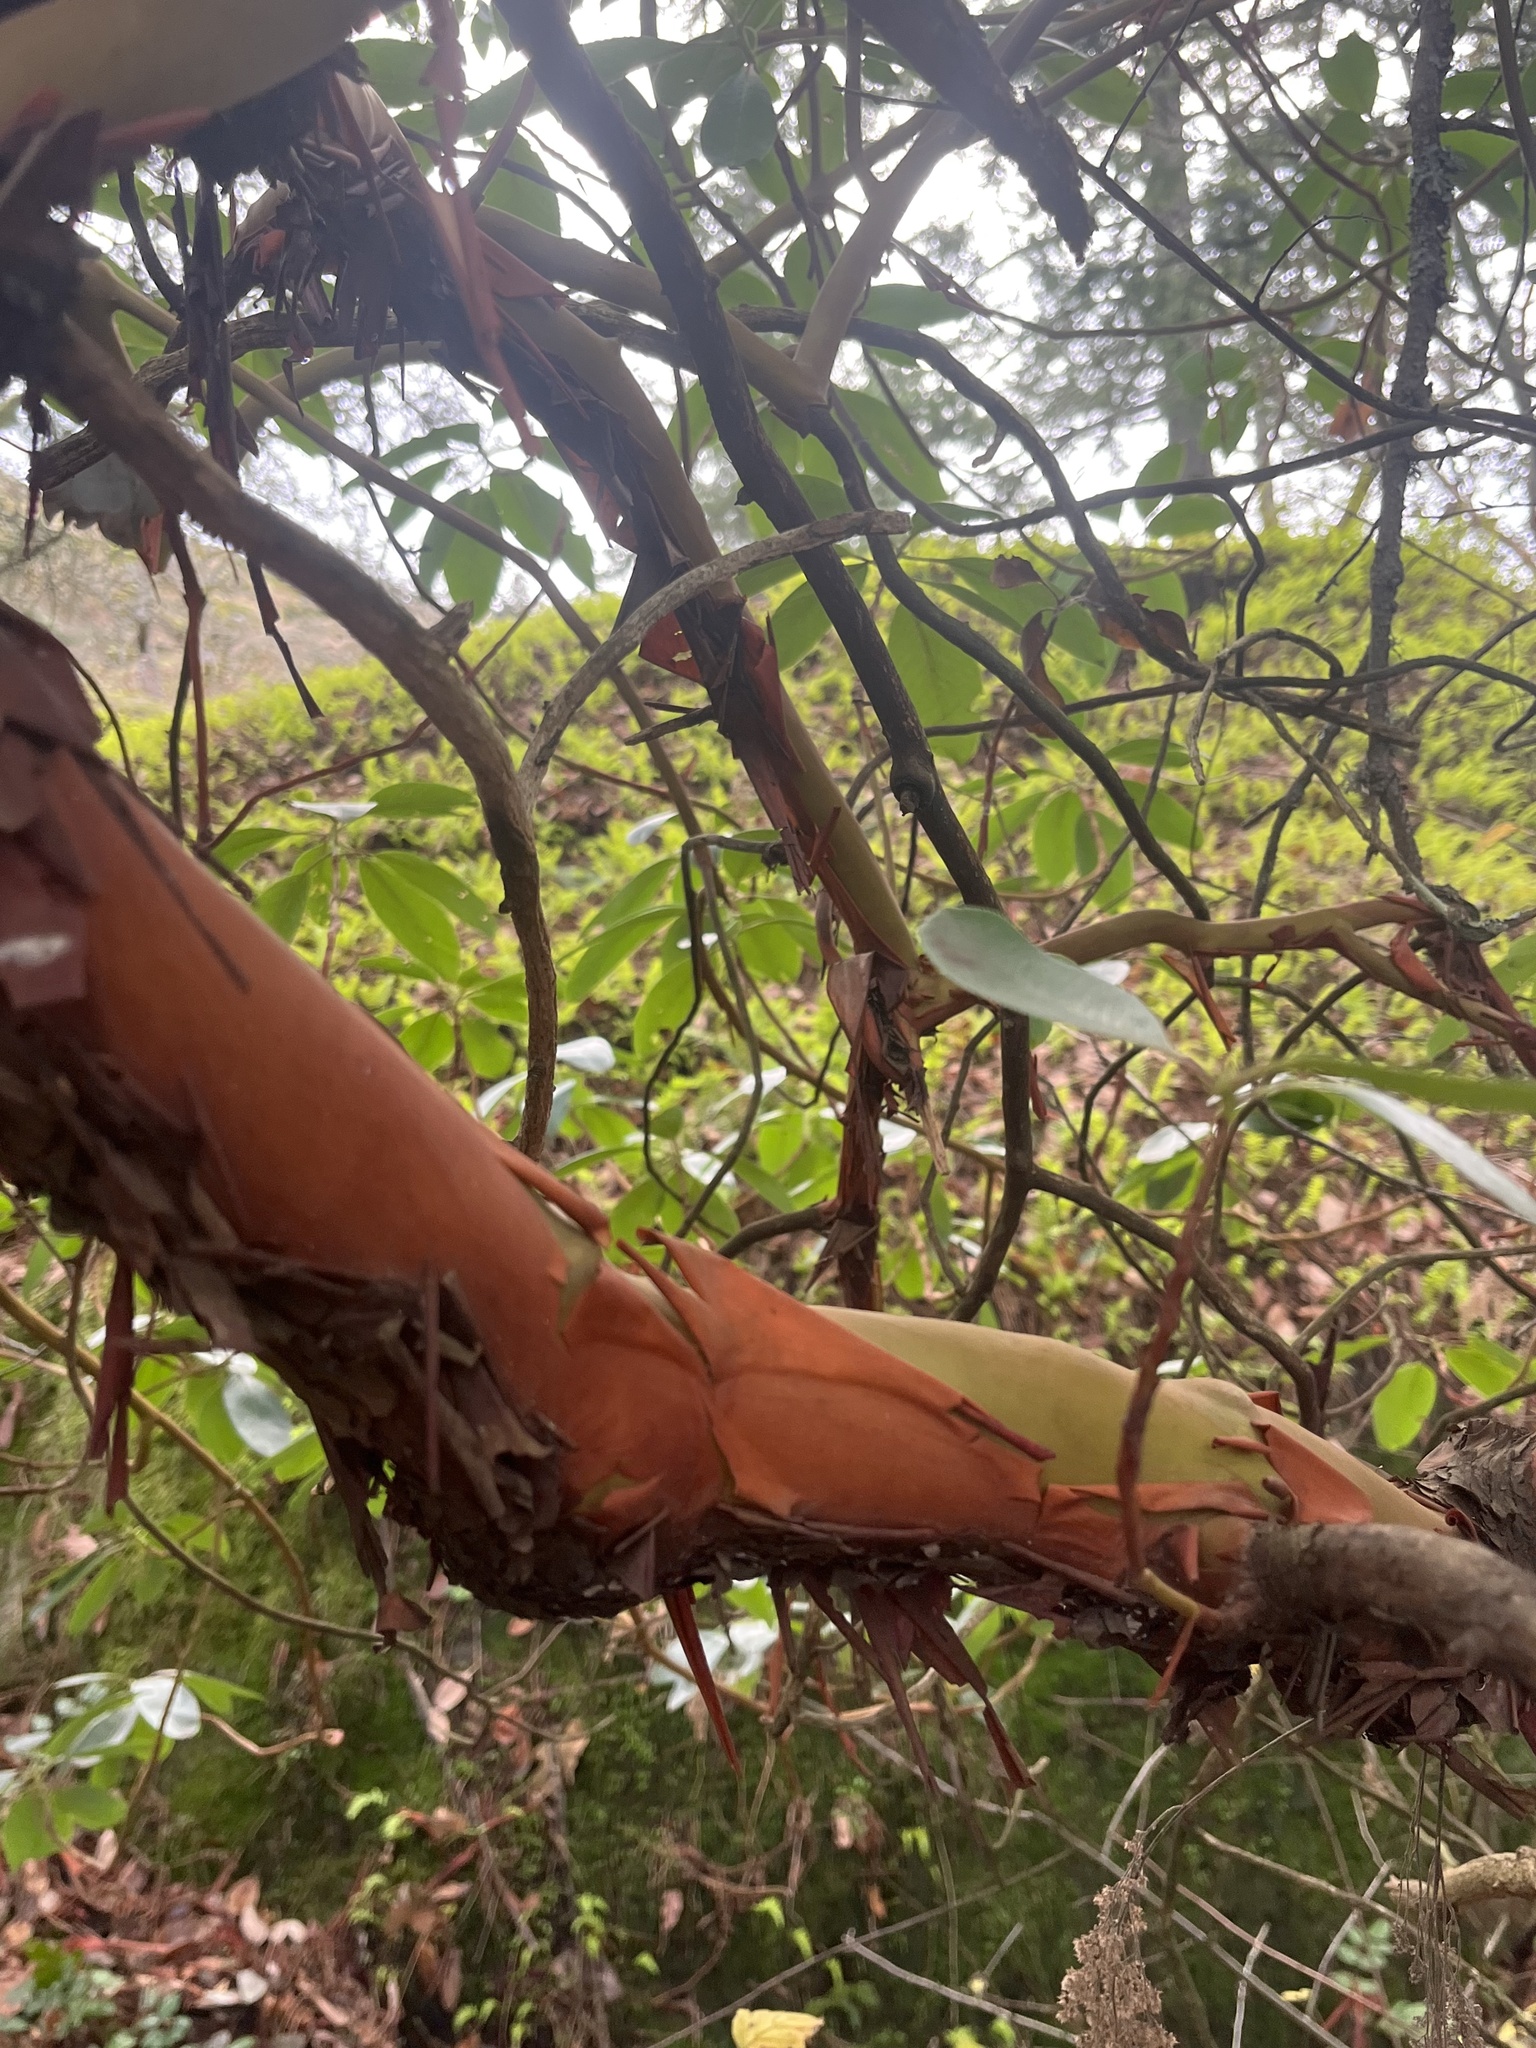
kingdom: Plantae
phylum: Tracheophyta
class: Magnoliopsida
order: Ericales
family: Ericaceae
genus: Arbutus
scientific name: Arbutus menziesii
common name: Pacific madrone
